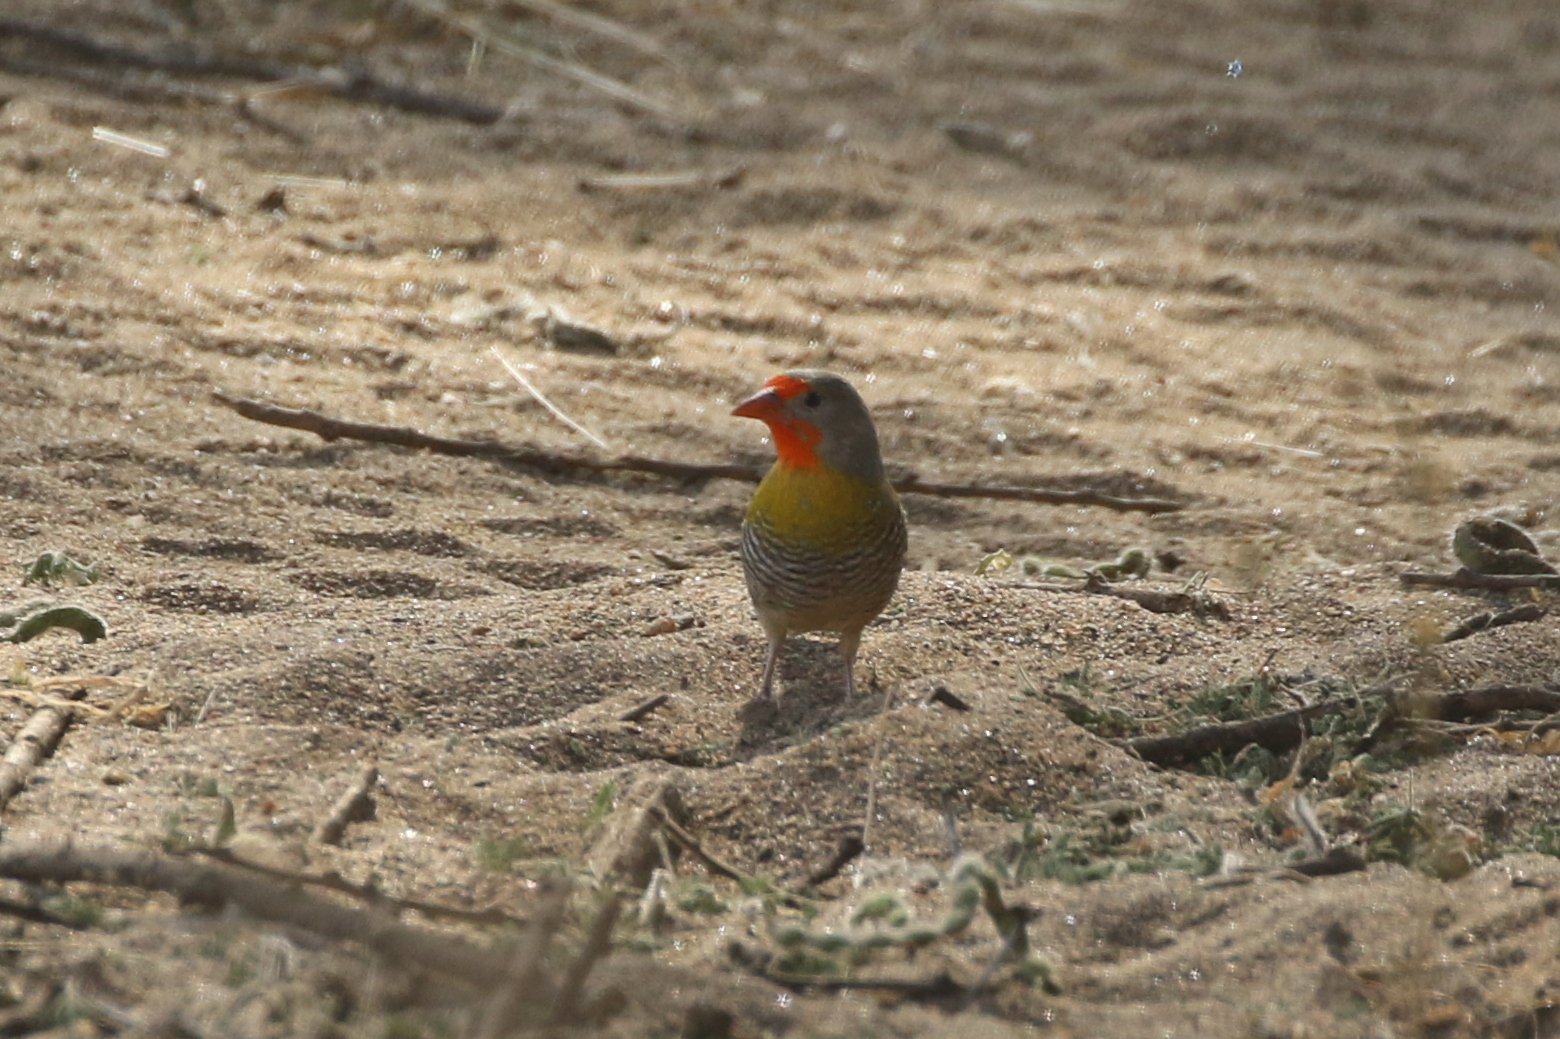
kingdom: Animalia
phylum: Chordata
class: Aves
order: Passeriformes
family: Estrildidae
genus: Pytilia
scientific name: Pytilia melba
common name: Green-winged pytilia
